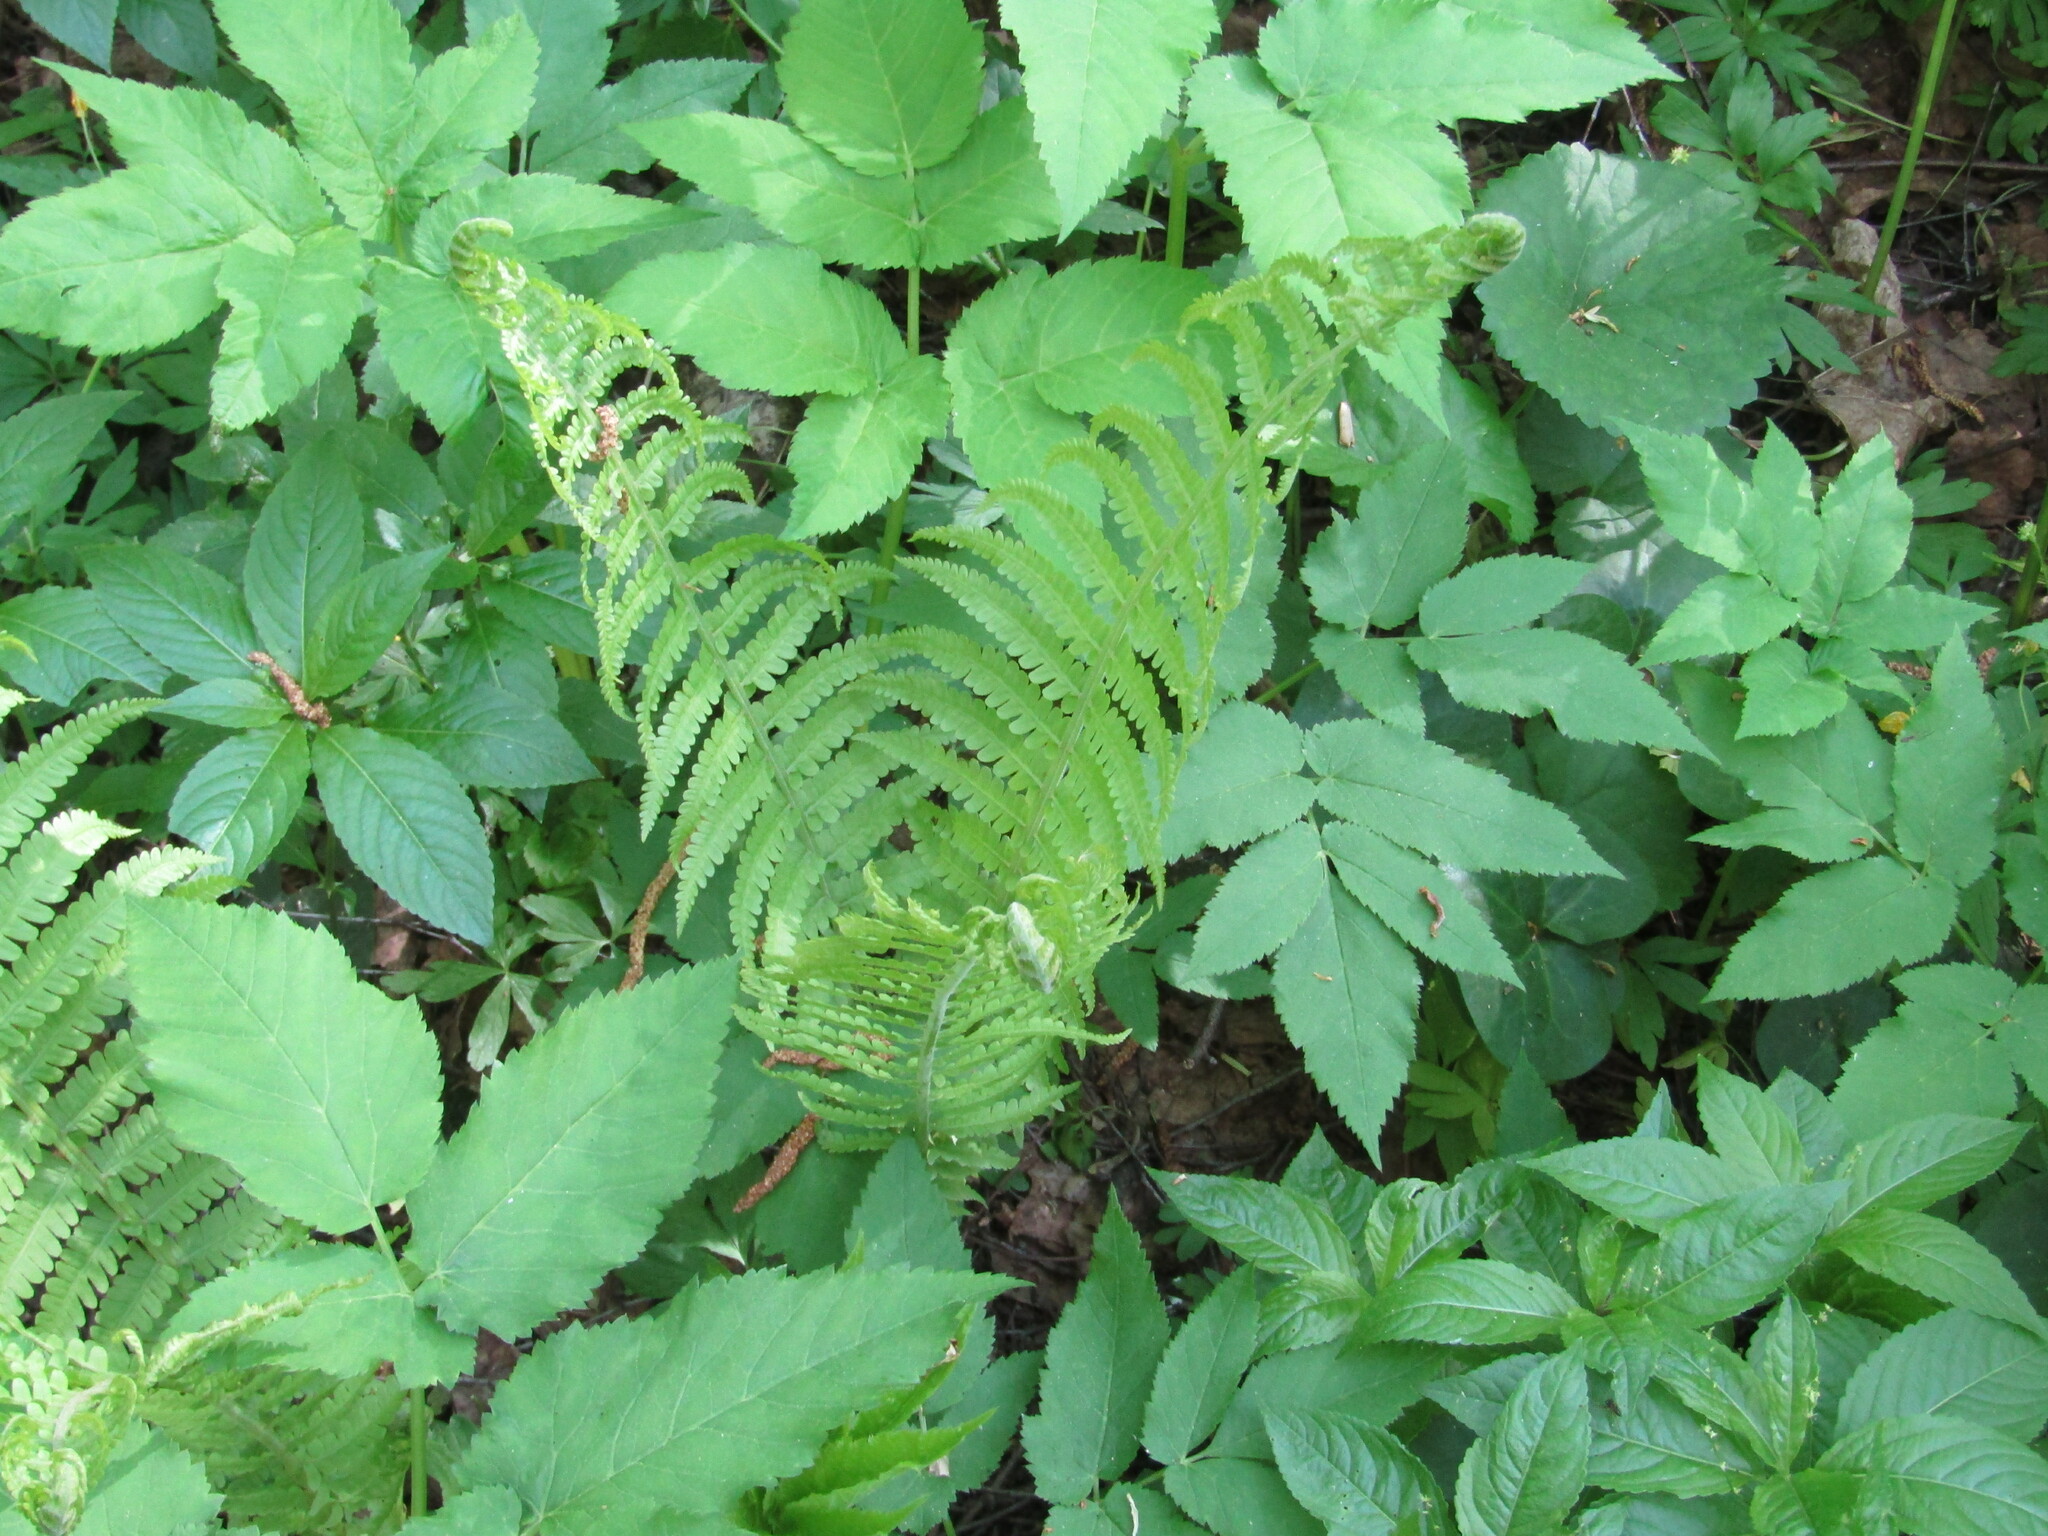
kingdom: Plantae
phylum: Tracheophyta
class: Polypodiopsida
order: Polypodiales
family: Onocleaceae
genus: Matteuccia
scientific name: Matteuccia struthiopteris
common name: Ostrich fern
